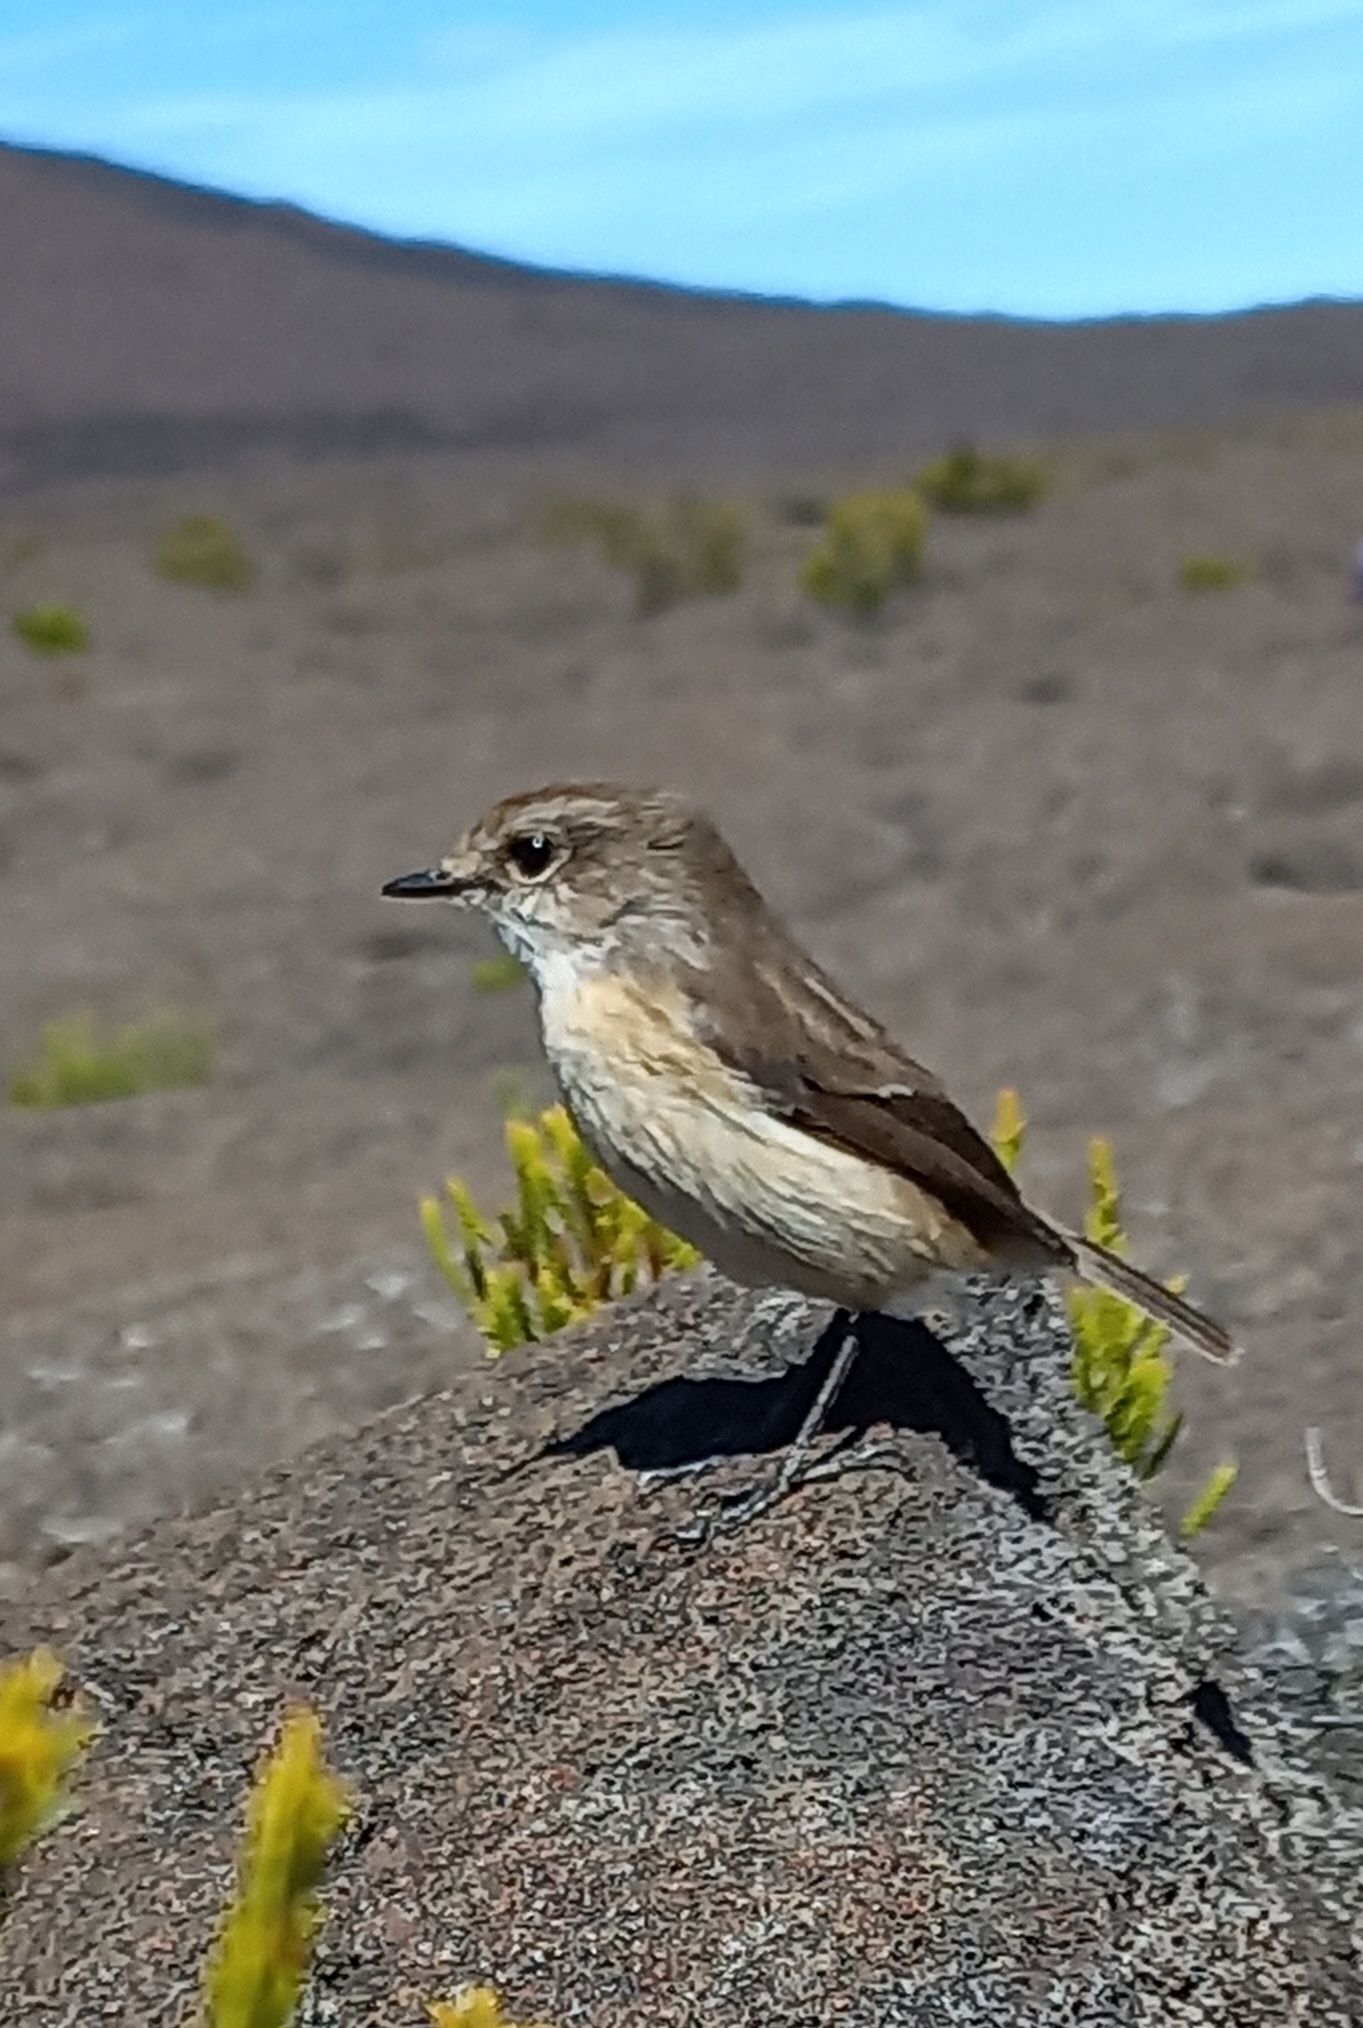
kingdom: Animalia
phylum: Chordata
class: Aves
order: Passeriformes
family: Muscicapidae
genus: Saxicola
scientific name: Saxicola tectes
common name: Reunion stonechat
